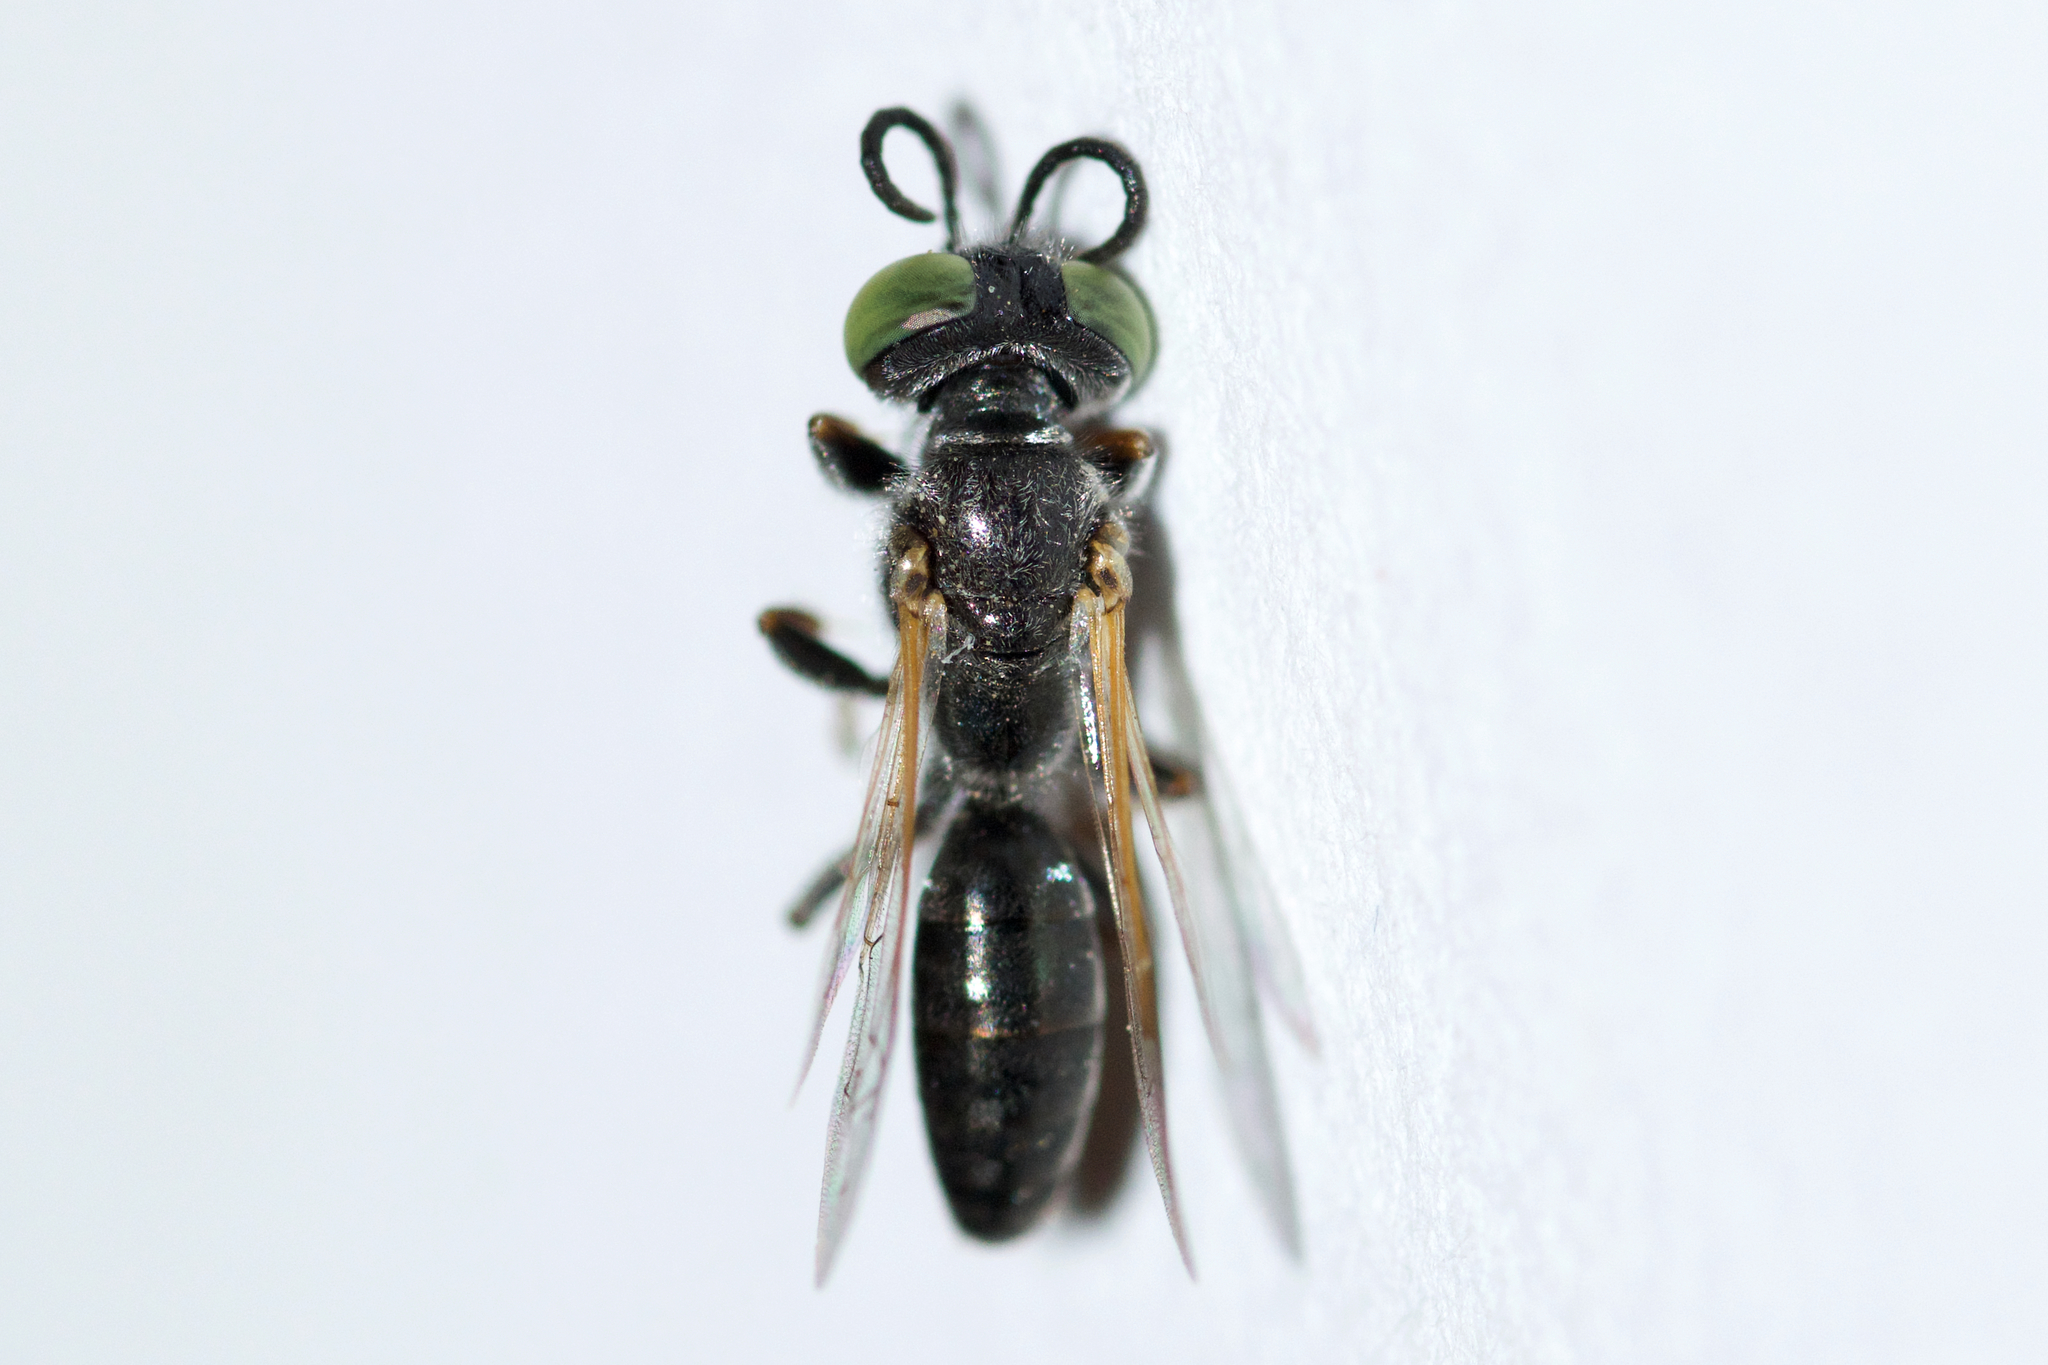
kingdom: Animalia
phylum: Arthropoda
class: Insecta
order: Hymenoptera
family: Crabronidae
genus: Tachytes
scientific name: Tachytes mergus
